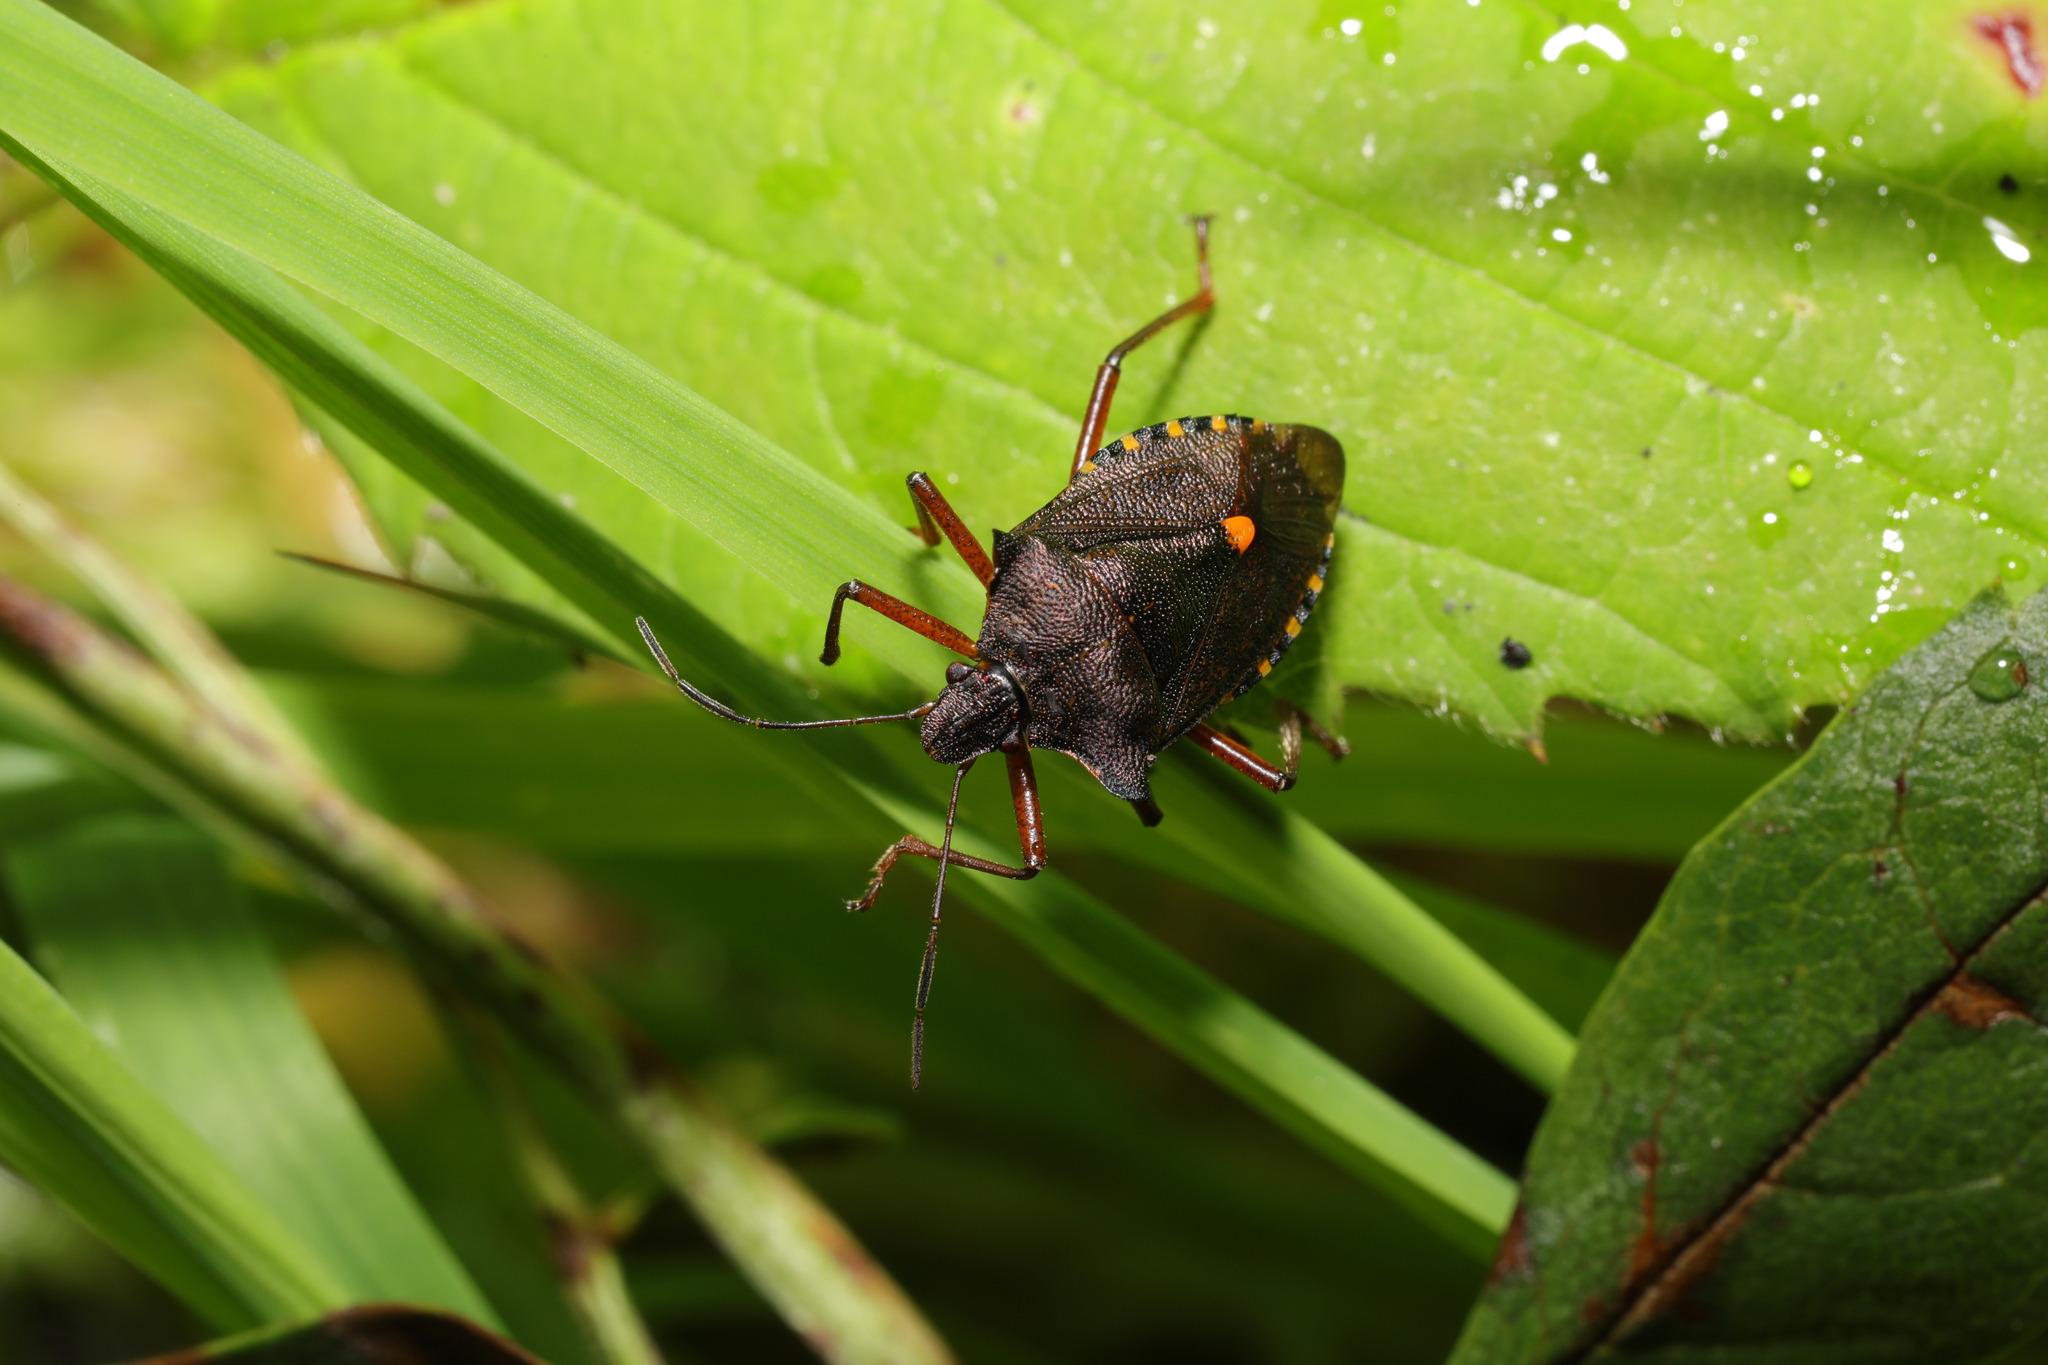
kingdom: Animalia
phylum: Arthropoda
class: Insecta
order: Hemiptera
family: Pentatomidae
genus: Pentatoma
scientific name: Pentatoma rufipes
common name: Forest bug
